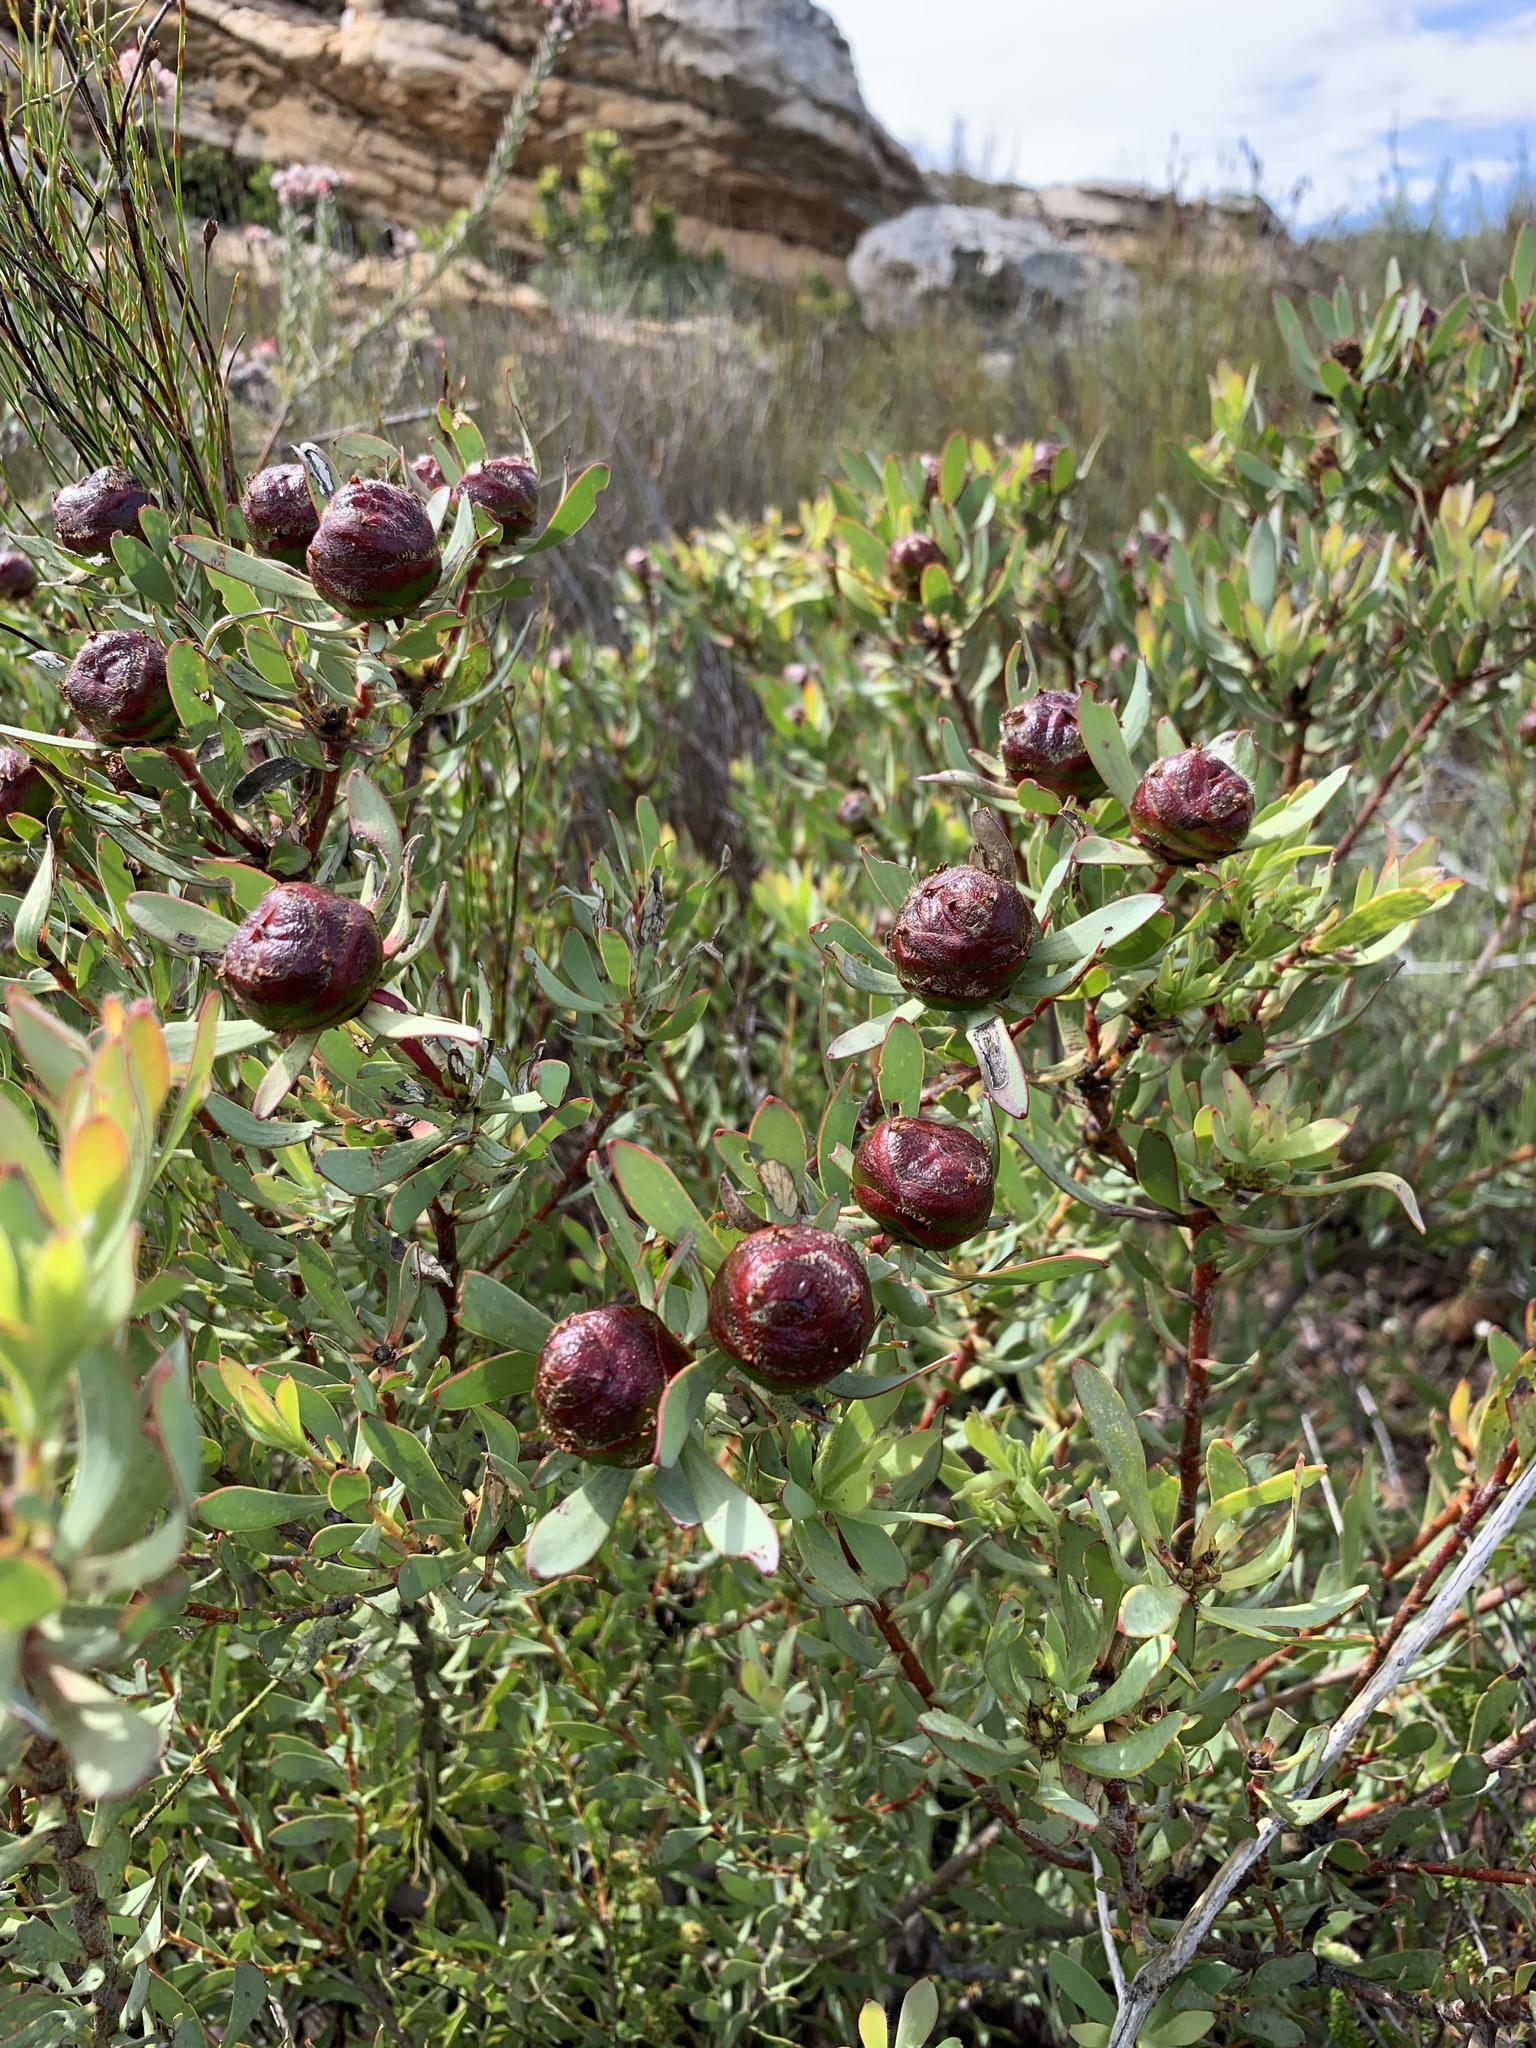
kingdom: Plantae
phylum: Tracheophyta
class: Magnoliopsida
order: Proteales
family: Proteaceae
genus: Leucadendron
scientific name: Leucadendron glaberrimum
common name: Common oily conebush
